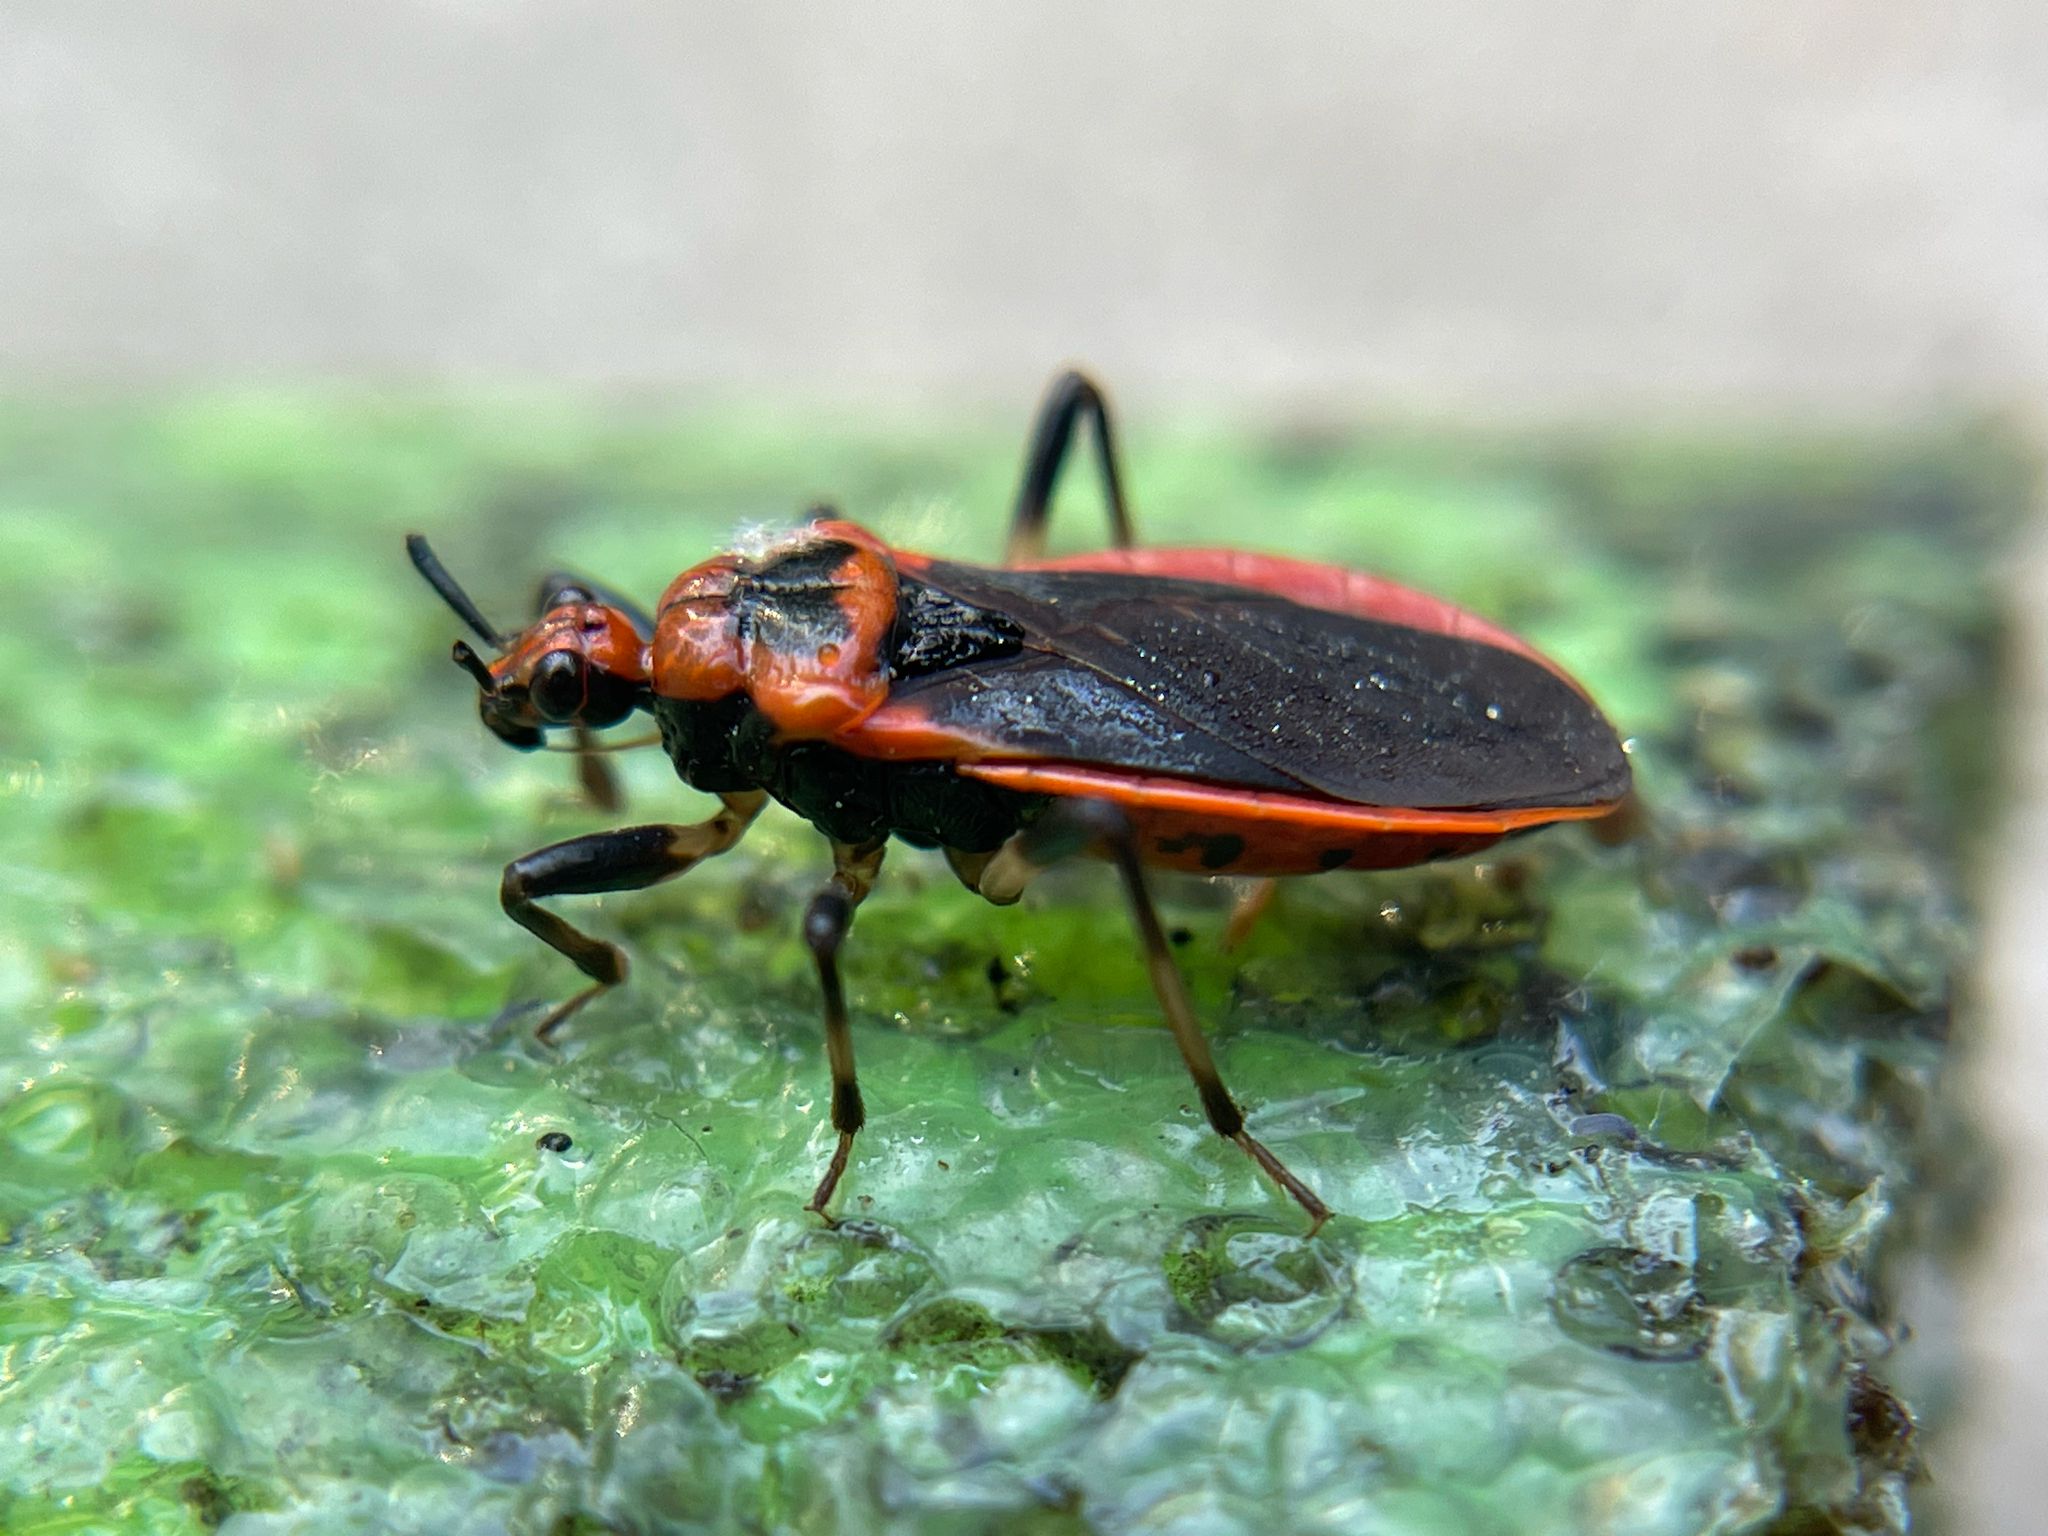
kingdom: Animalia
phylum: Arthropoda
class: Insecta
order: Hemiptera
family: Reduviidae
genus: Rhiginia
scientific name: Rhiginia cruciata
